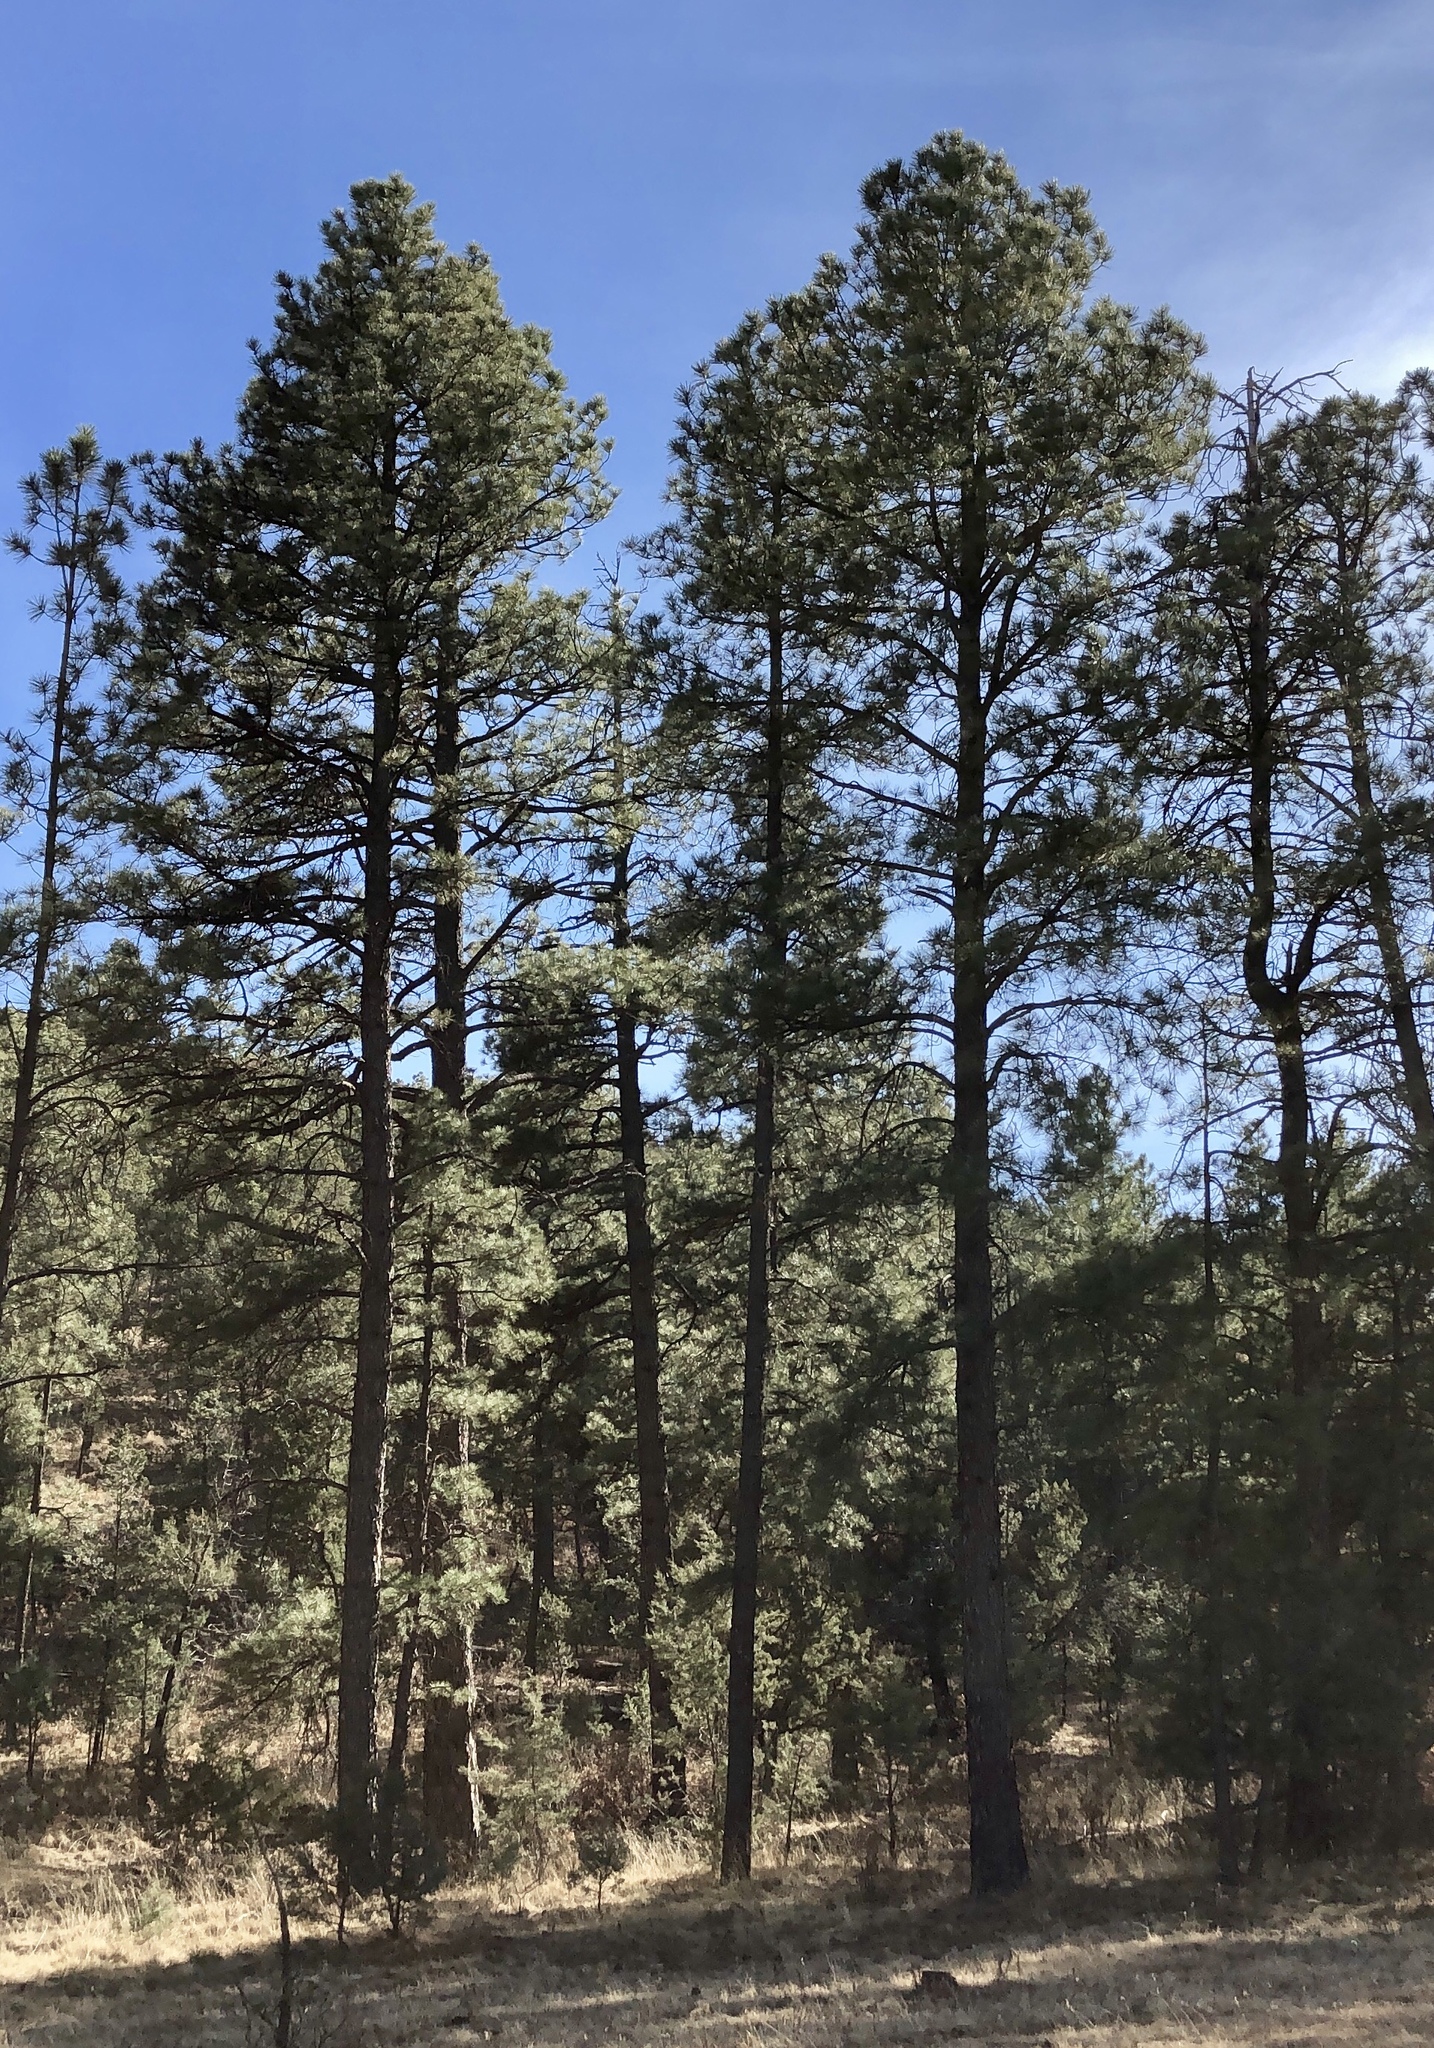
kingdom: Plantae
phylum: Tracheophyta
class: Pinopsida
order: Pinales
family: Pinaceae
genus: Pinus
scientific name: Pinus ponderosa
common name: Western yellow-pine
